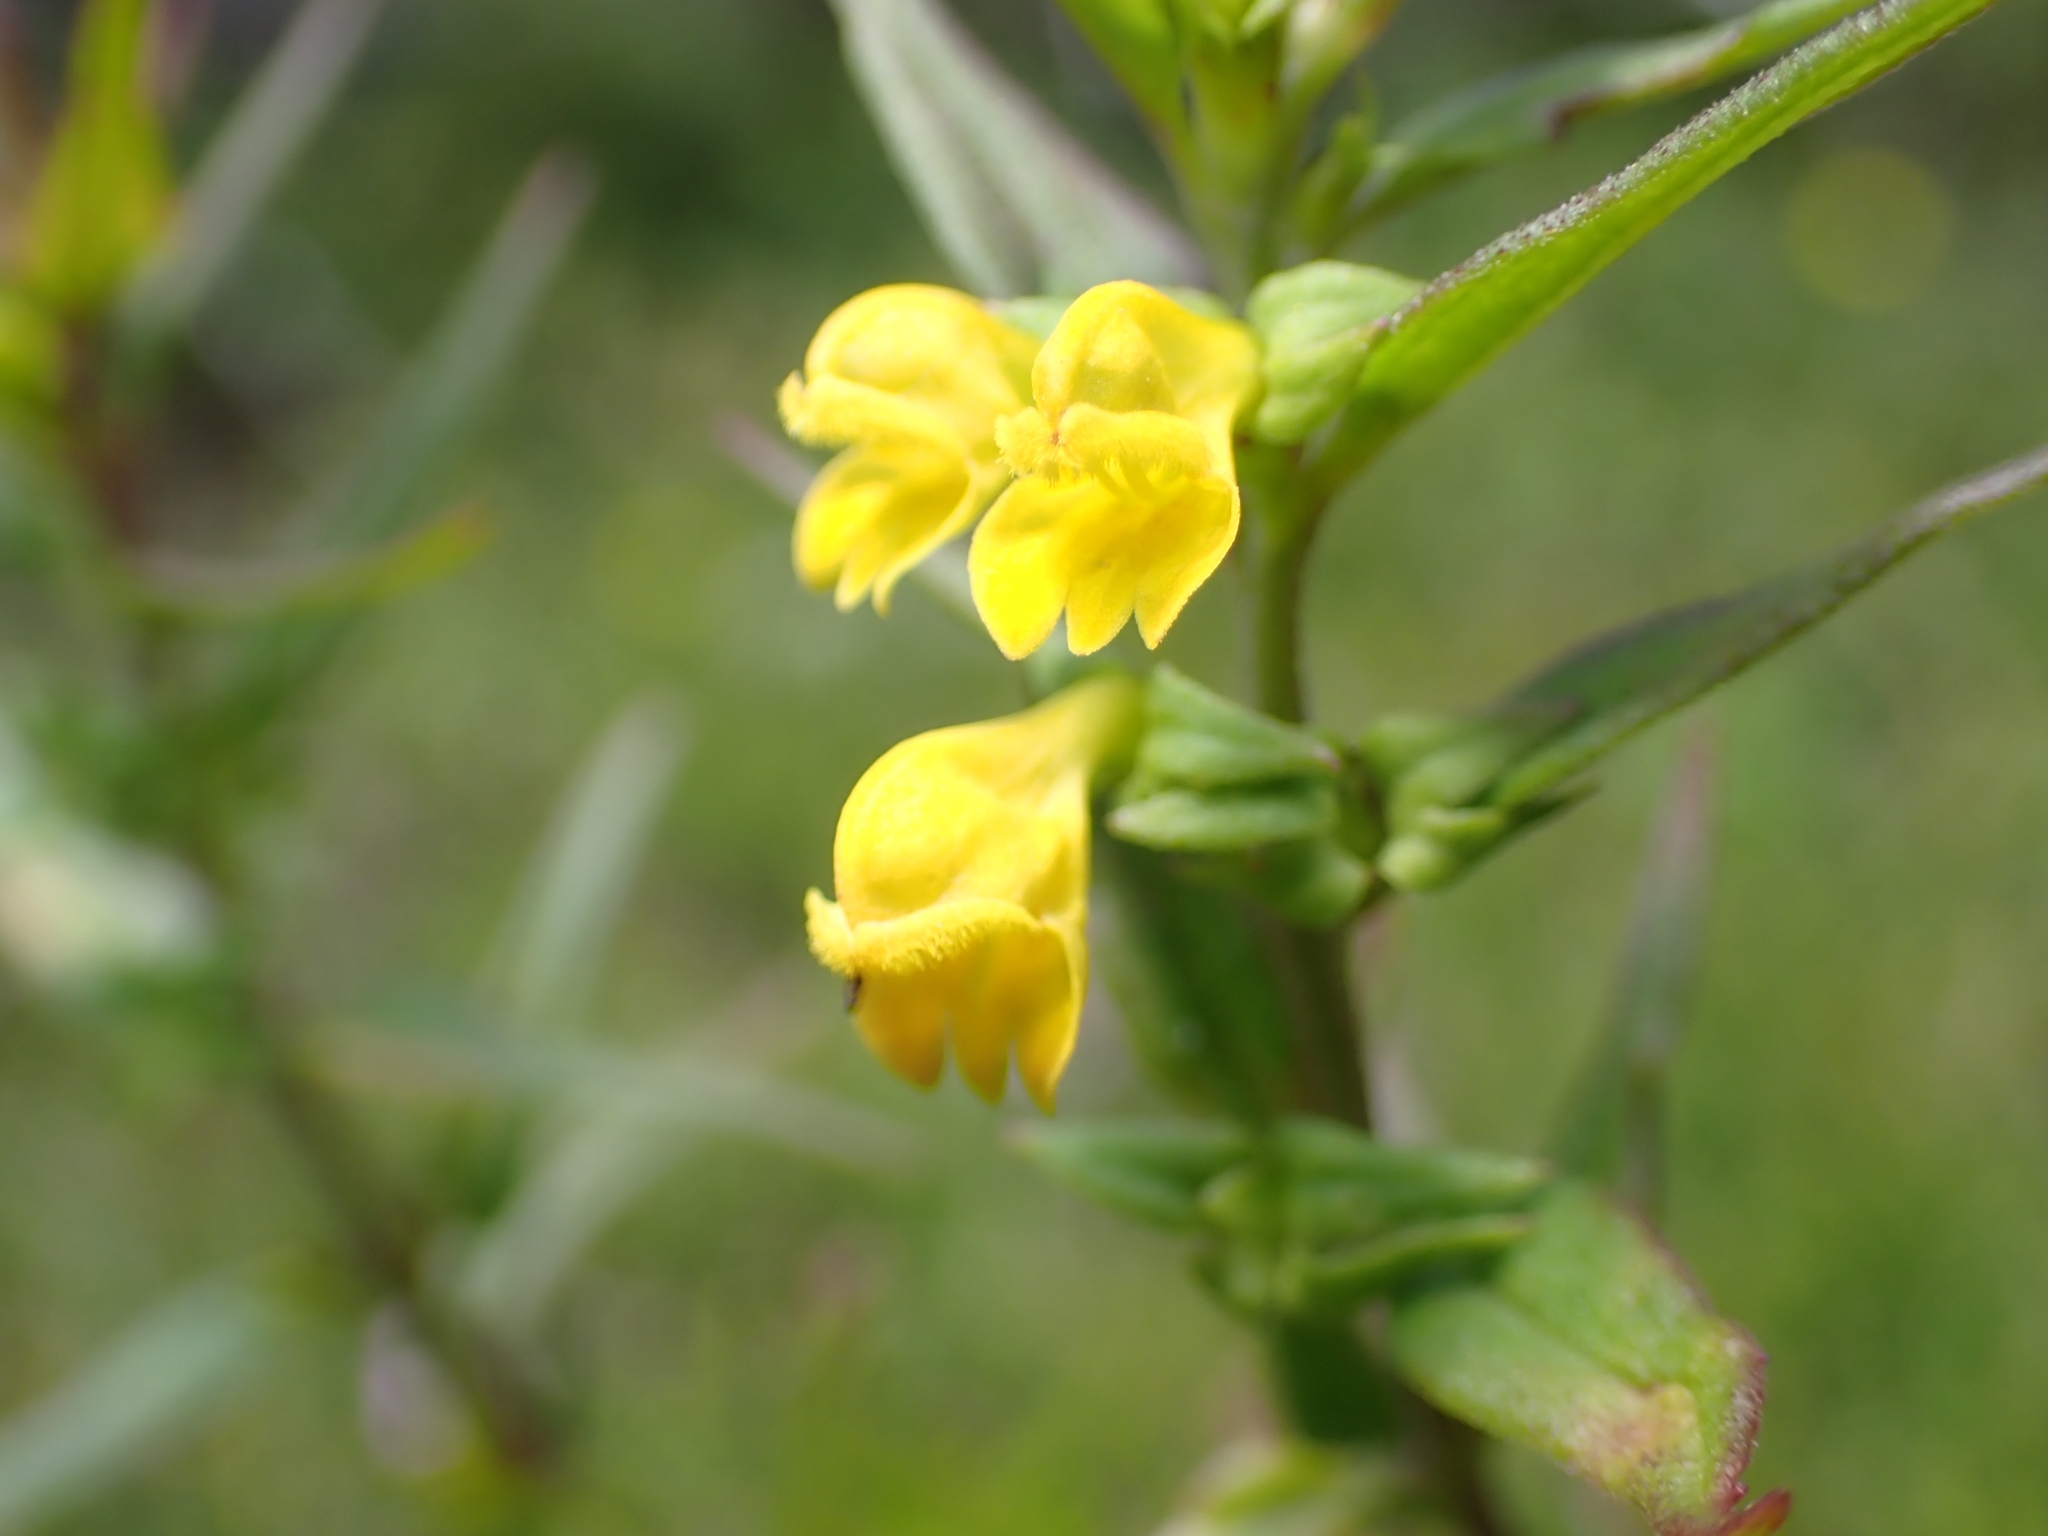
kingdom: Plantae
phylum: Tracheophyta
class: Magnoliopsida
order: Lamiales
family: Orobanchaceae
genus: Melampyrum
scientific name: Melampyrum sylvaticum
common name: Small cow-wheat
